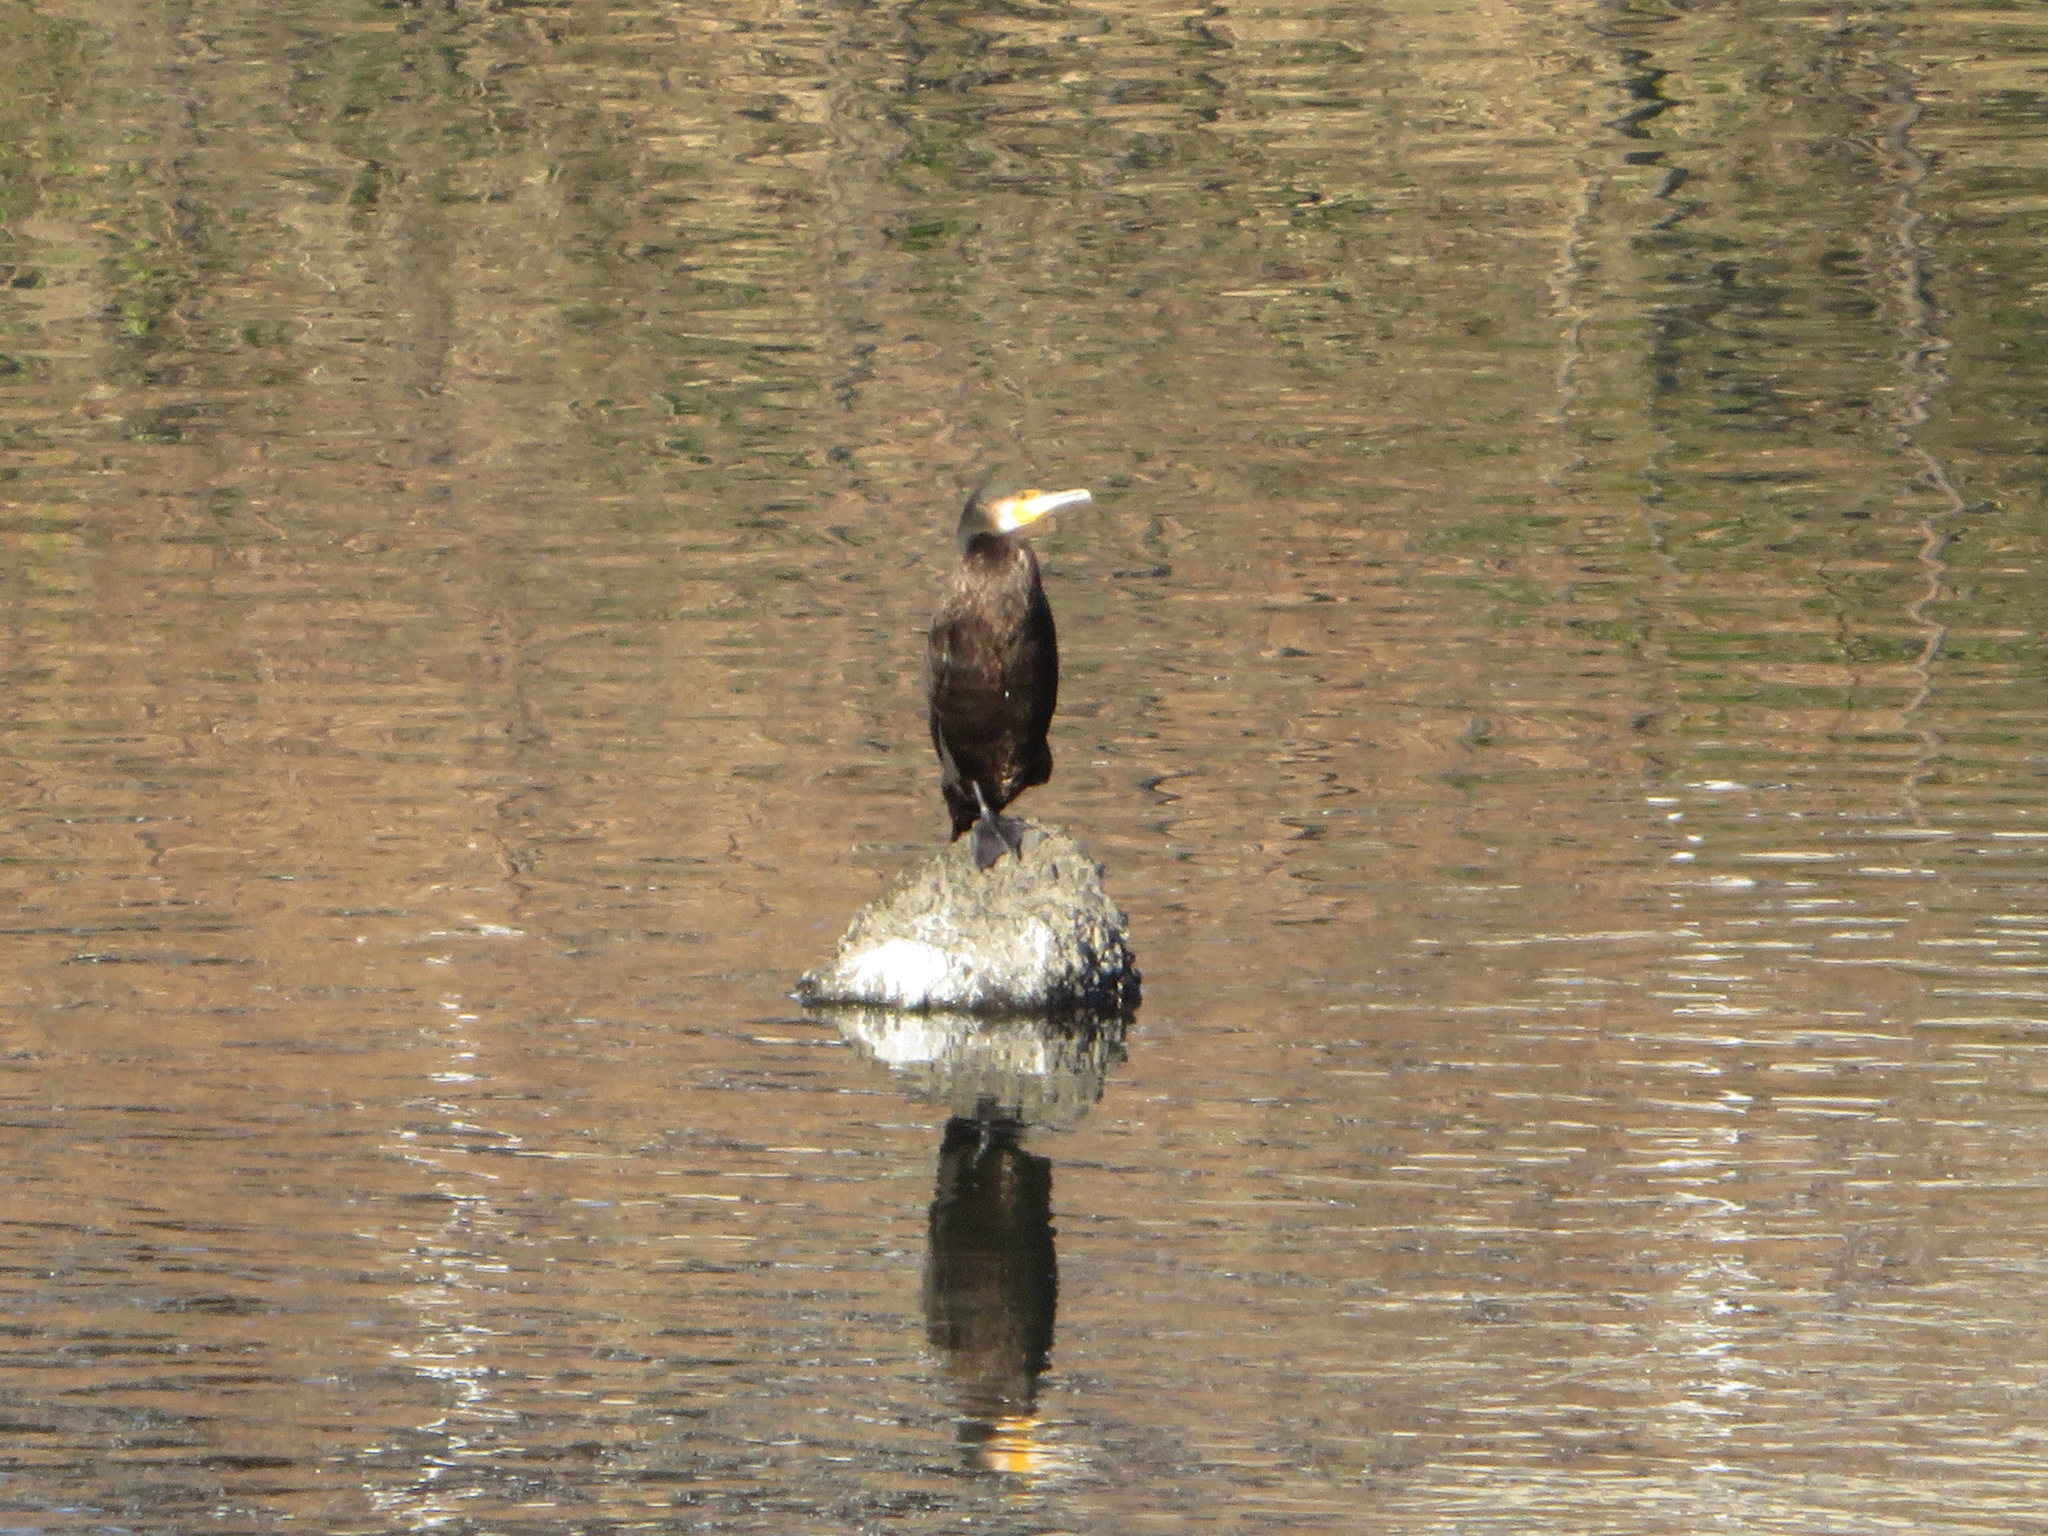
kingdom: Animalia
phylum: Chordata
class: Aves
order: Suliformes
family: Phalacrocoracidae
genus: Phalacrocorax
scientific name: Phalacrocorax carbo
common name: Great cormorant
